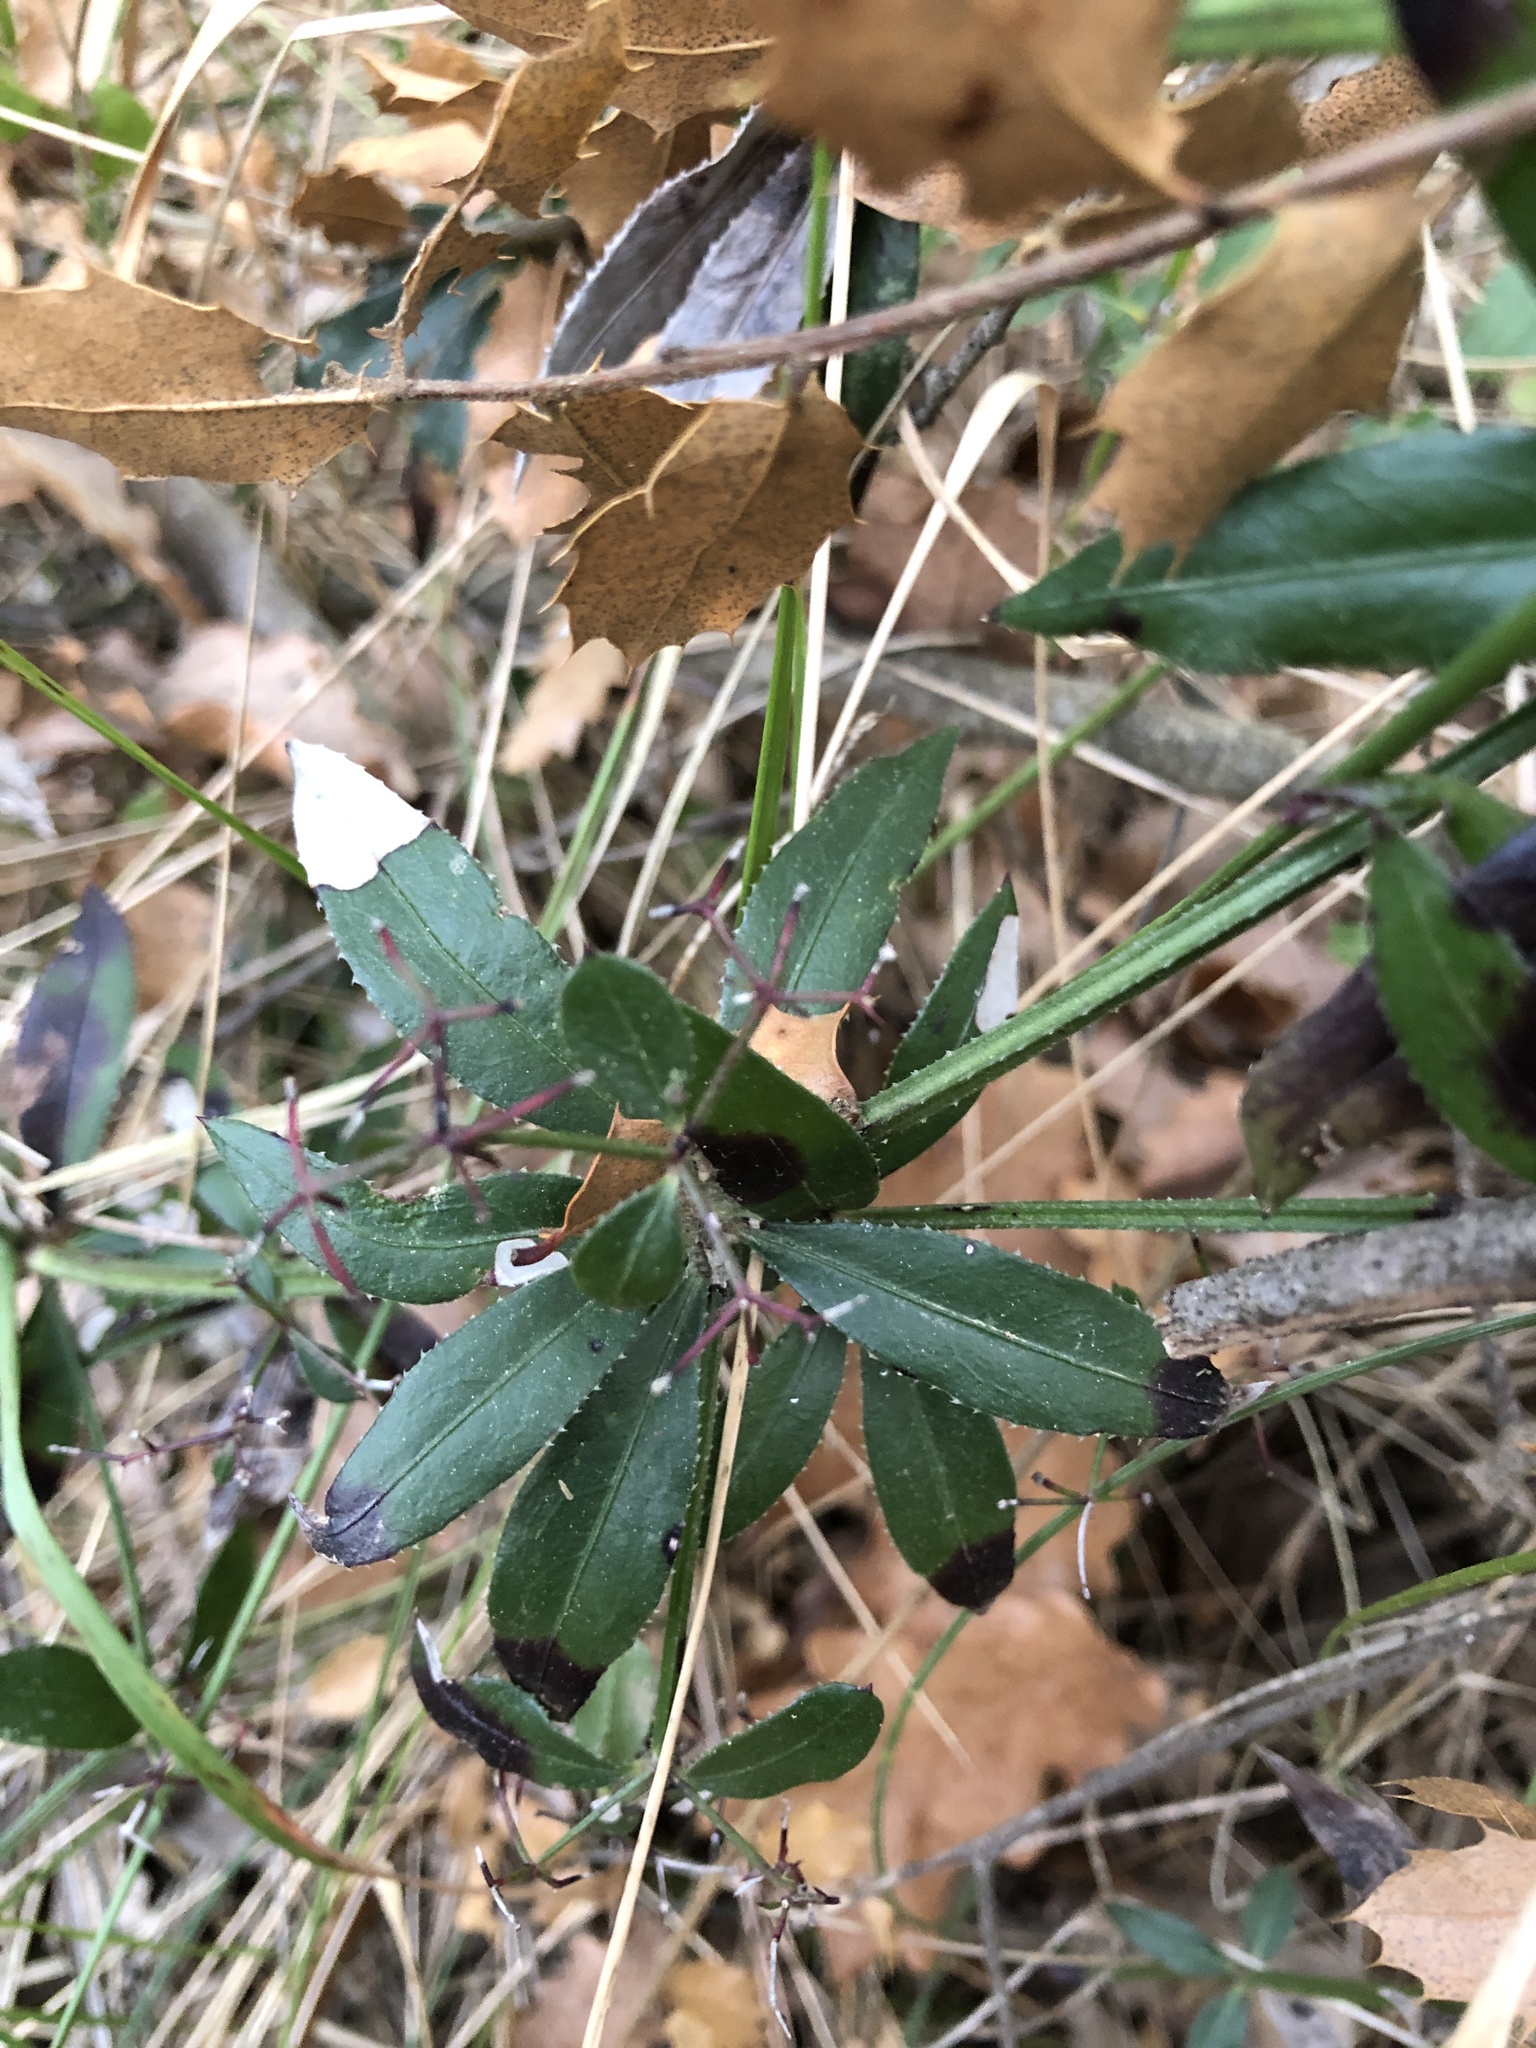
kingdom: Plantae
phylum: Tracheophyta
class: Magnoliopsida
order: Gentianales
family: Rubiaceae
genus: Rubia
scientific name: Rubia peregrina
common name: Wild madder
